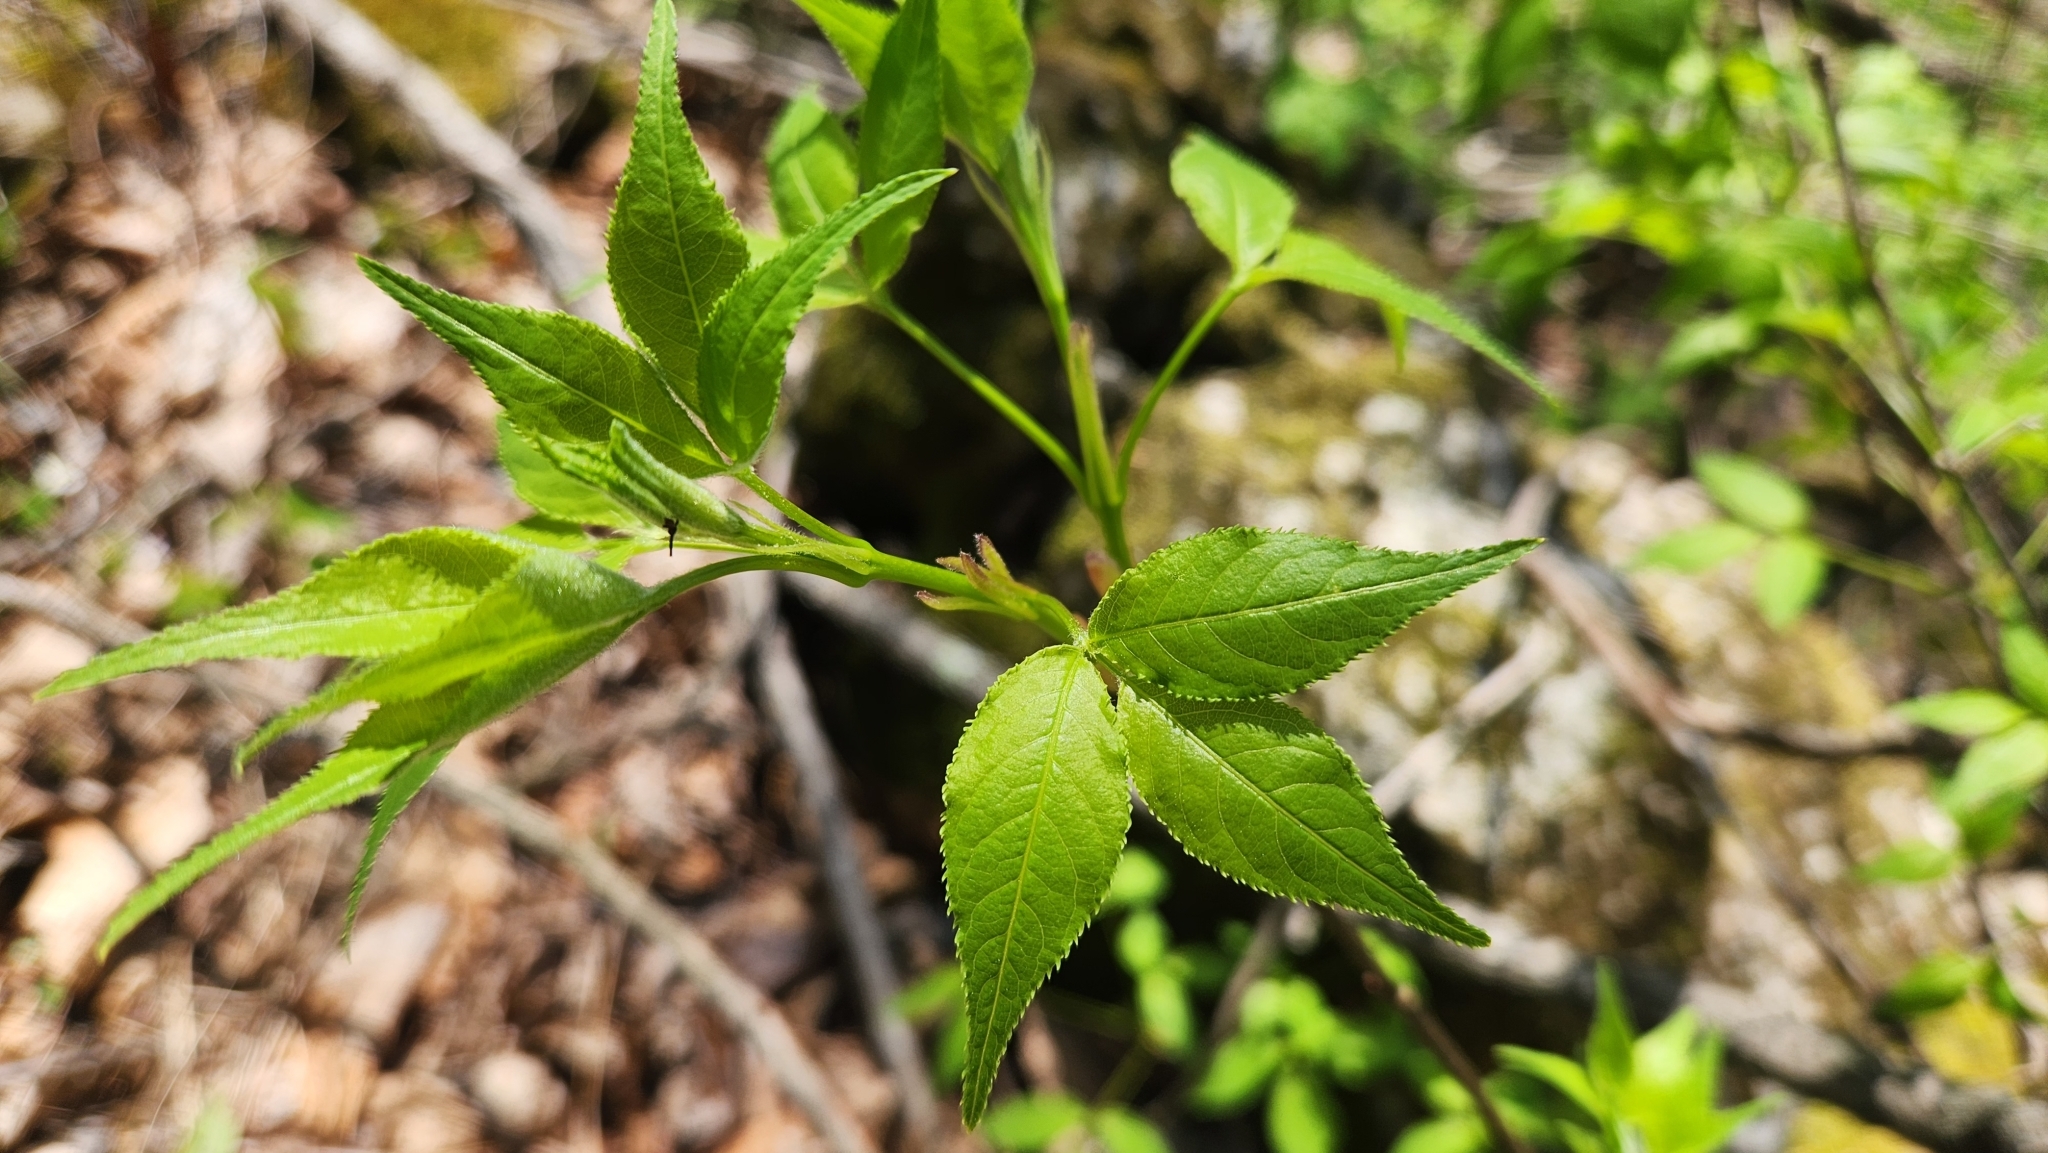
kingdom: Plantae
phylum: Tracheophyta
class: Magnoliopsida
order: Crossosomatales
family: Staphyleaceae
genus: Staphylea
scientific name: Staphylea trifolia
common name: American bladdernut
